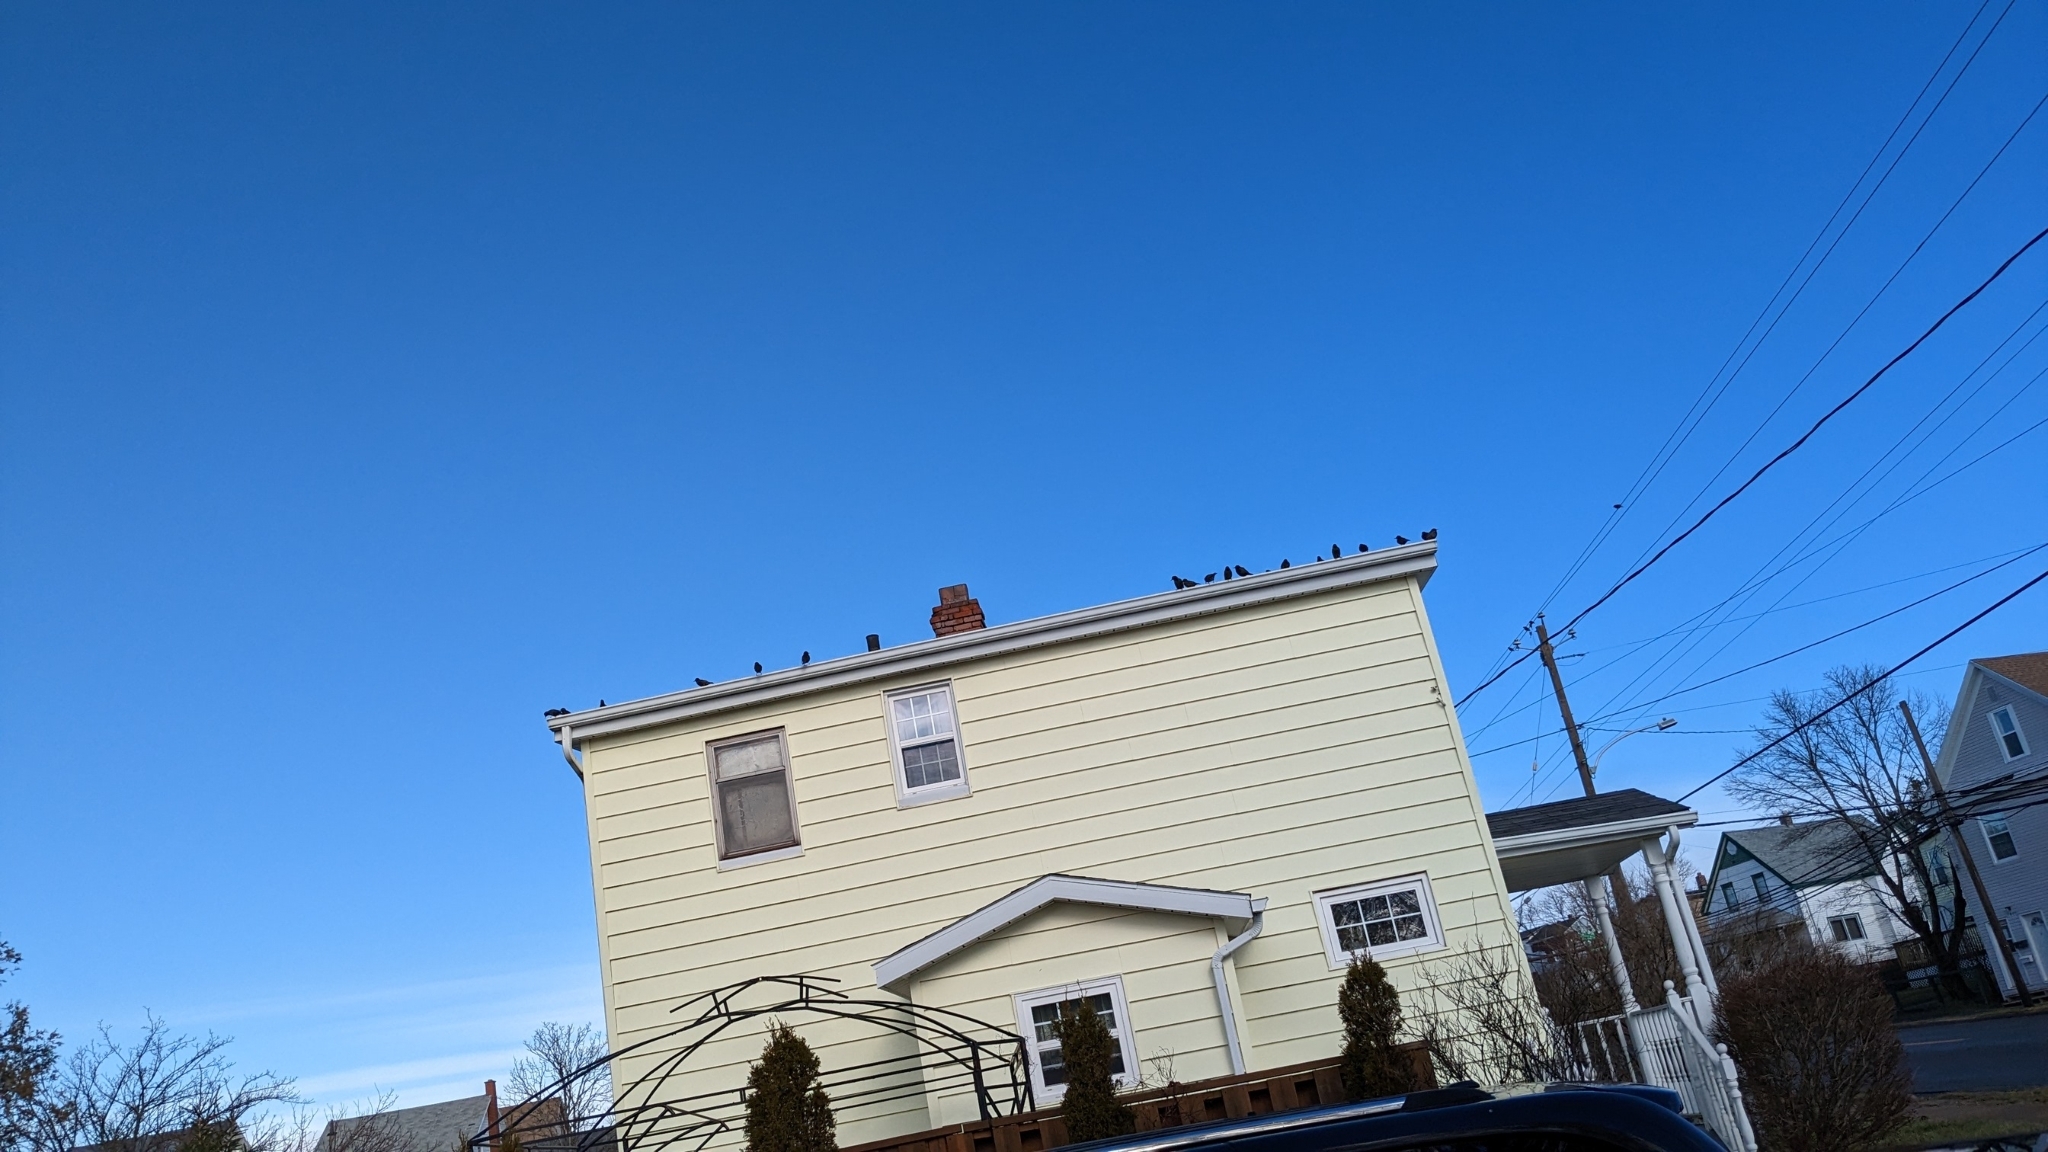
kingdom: Animalia
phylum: Chordata
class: Aves
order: Passeriformes
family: Sturnidae
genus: Sturnus
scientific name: Sturnus vulgaris
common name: Common starling
